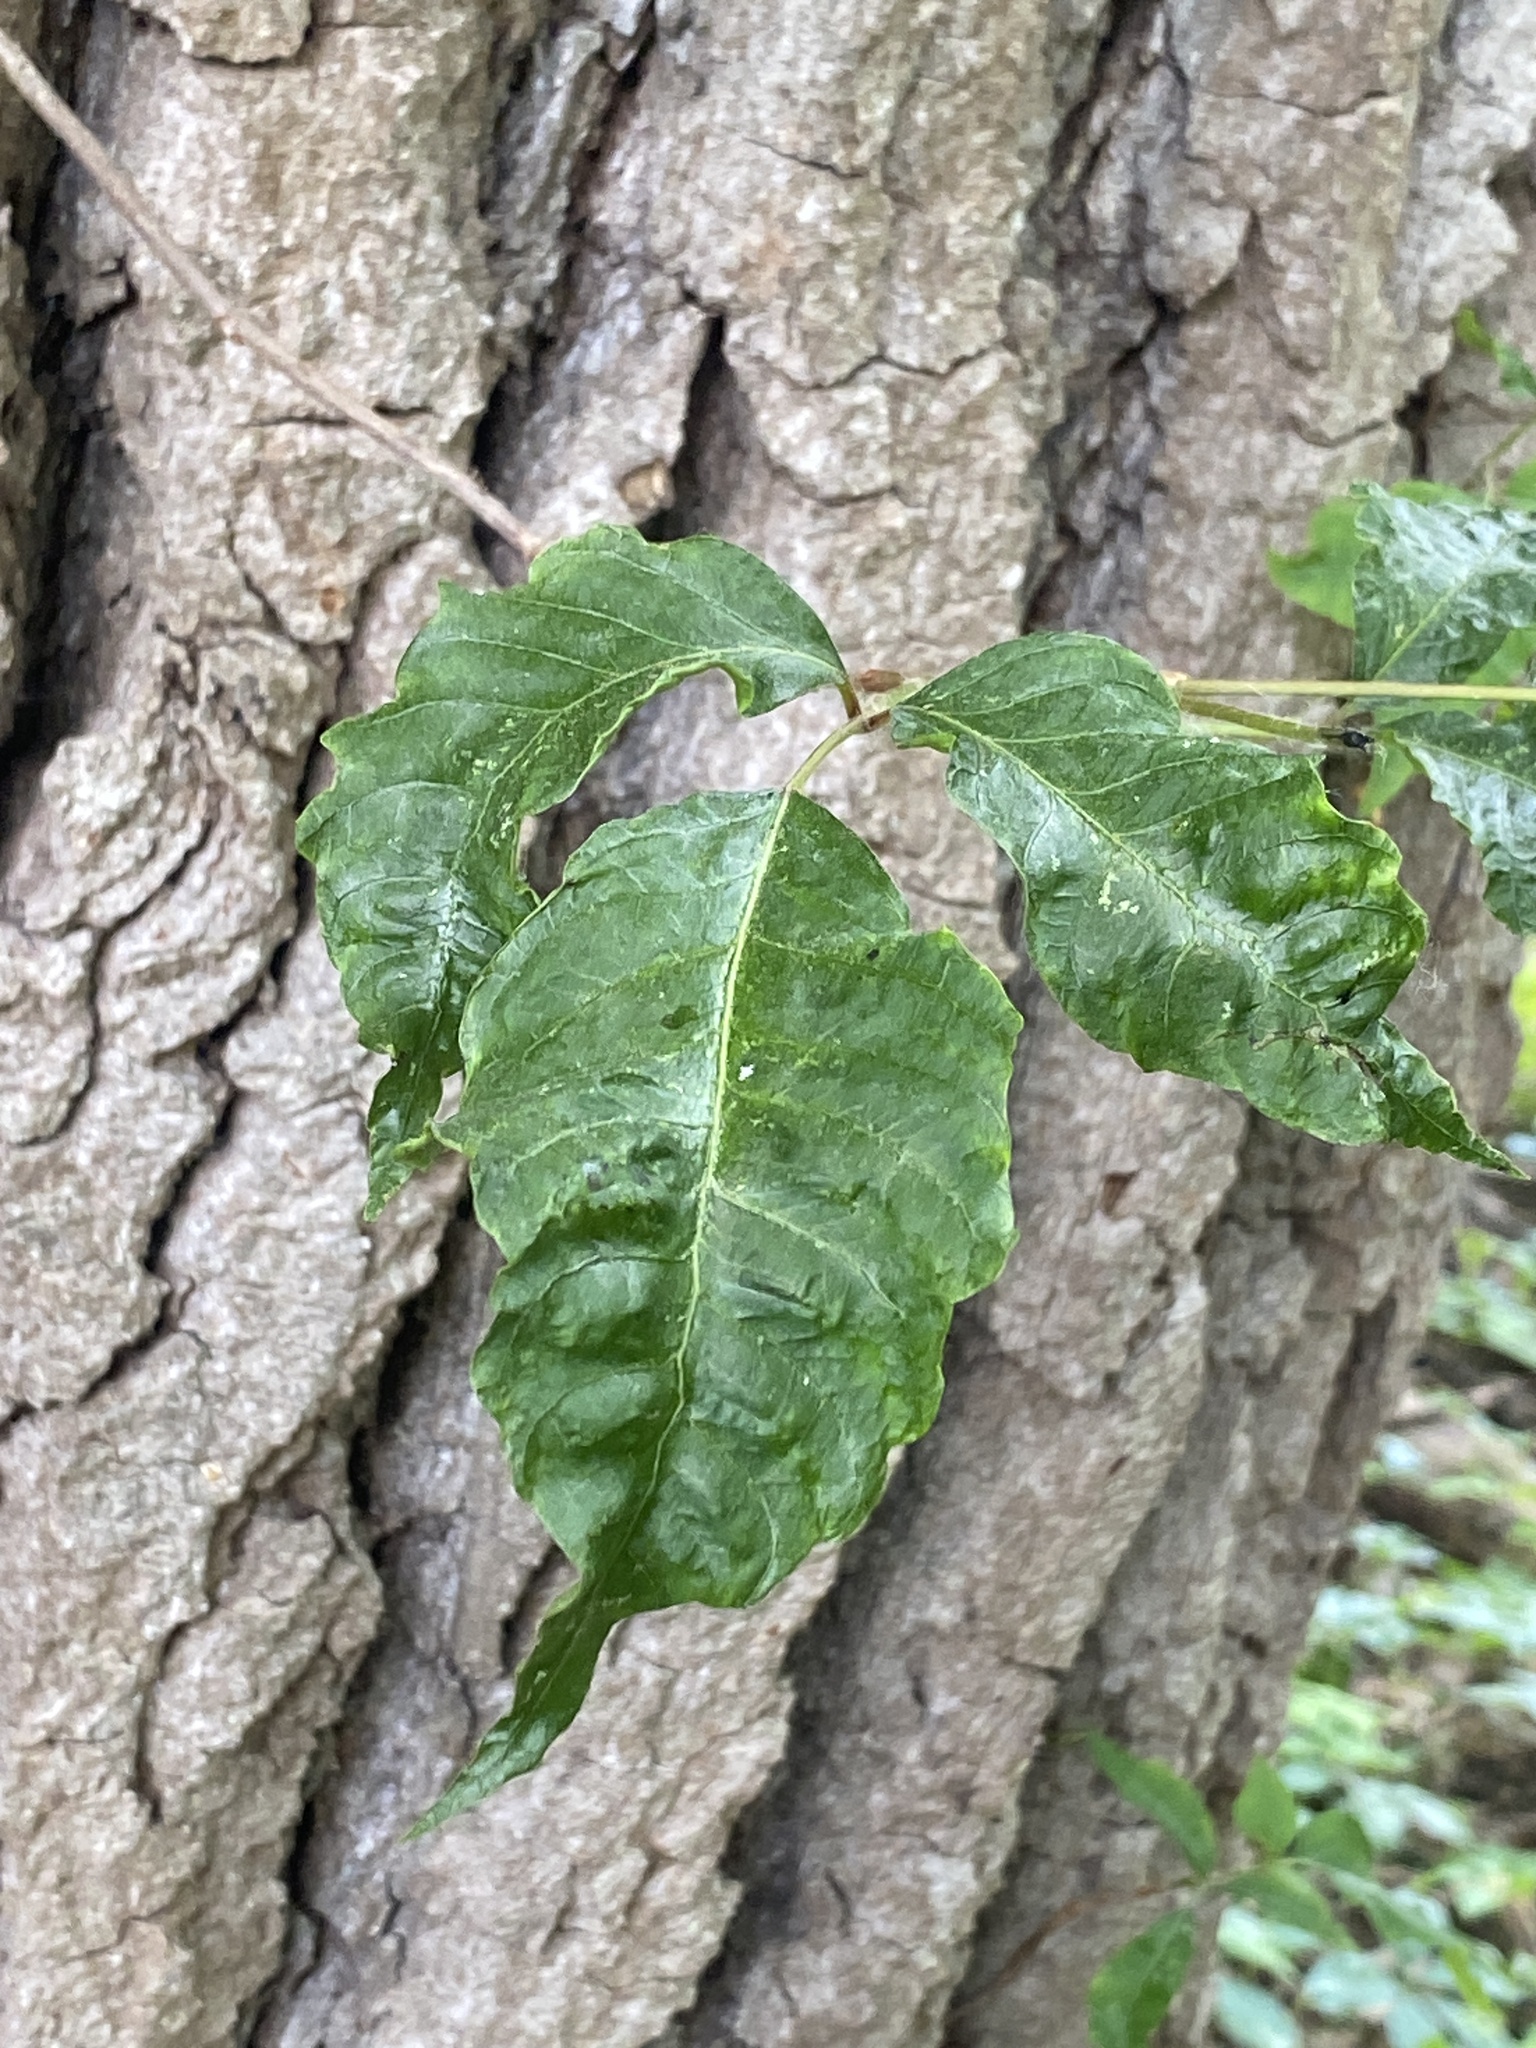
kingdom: Plantae
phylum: Tracheophyta
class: Magnoliopsida
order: Sapindales
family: Anacardiaceae
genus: Toxicodendron
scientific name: Toxicodendron radicans
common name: Poison ivy
